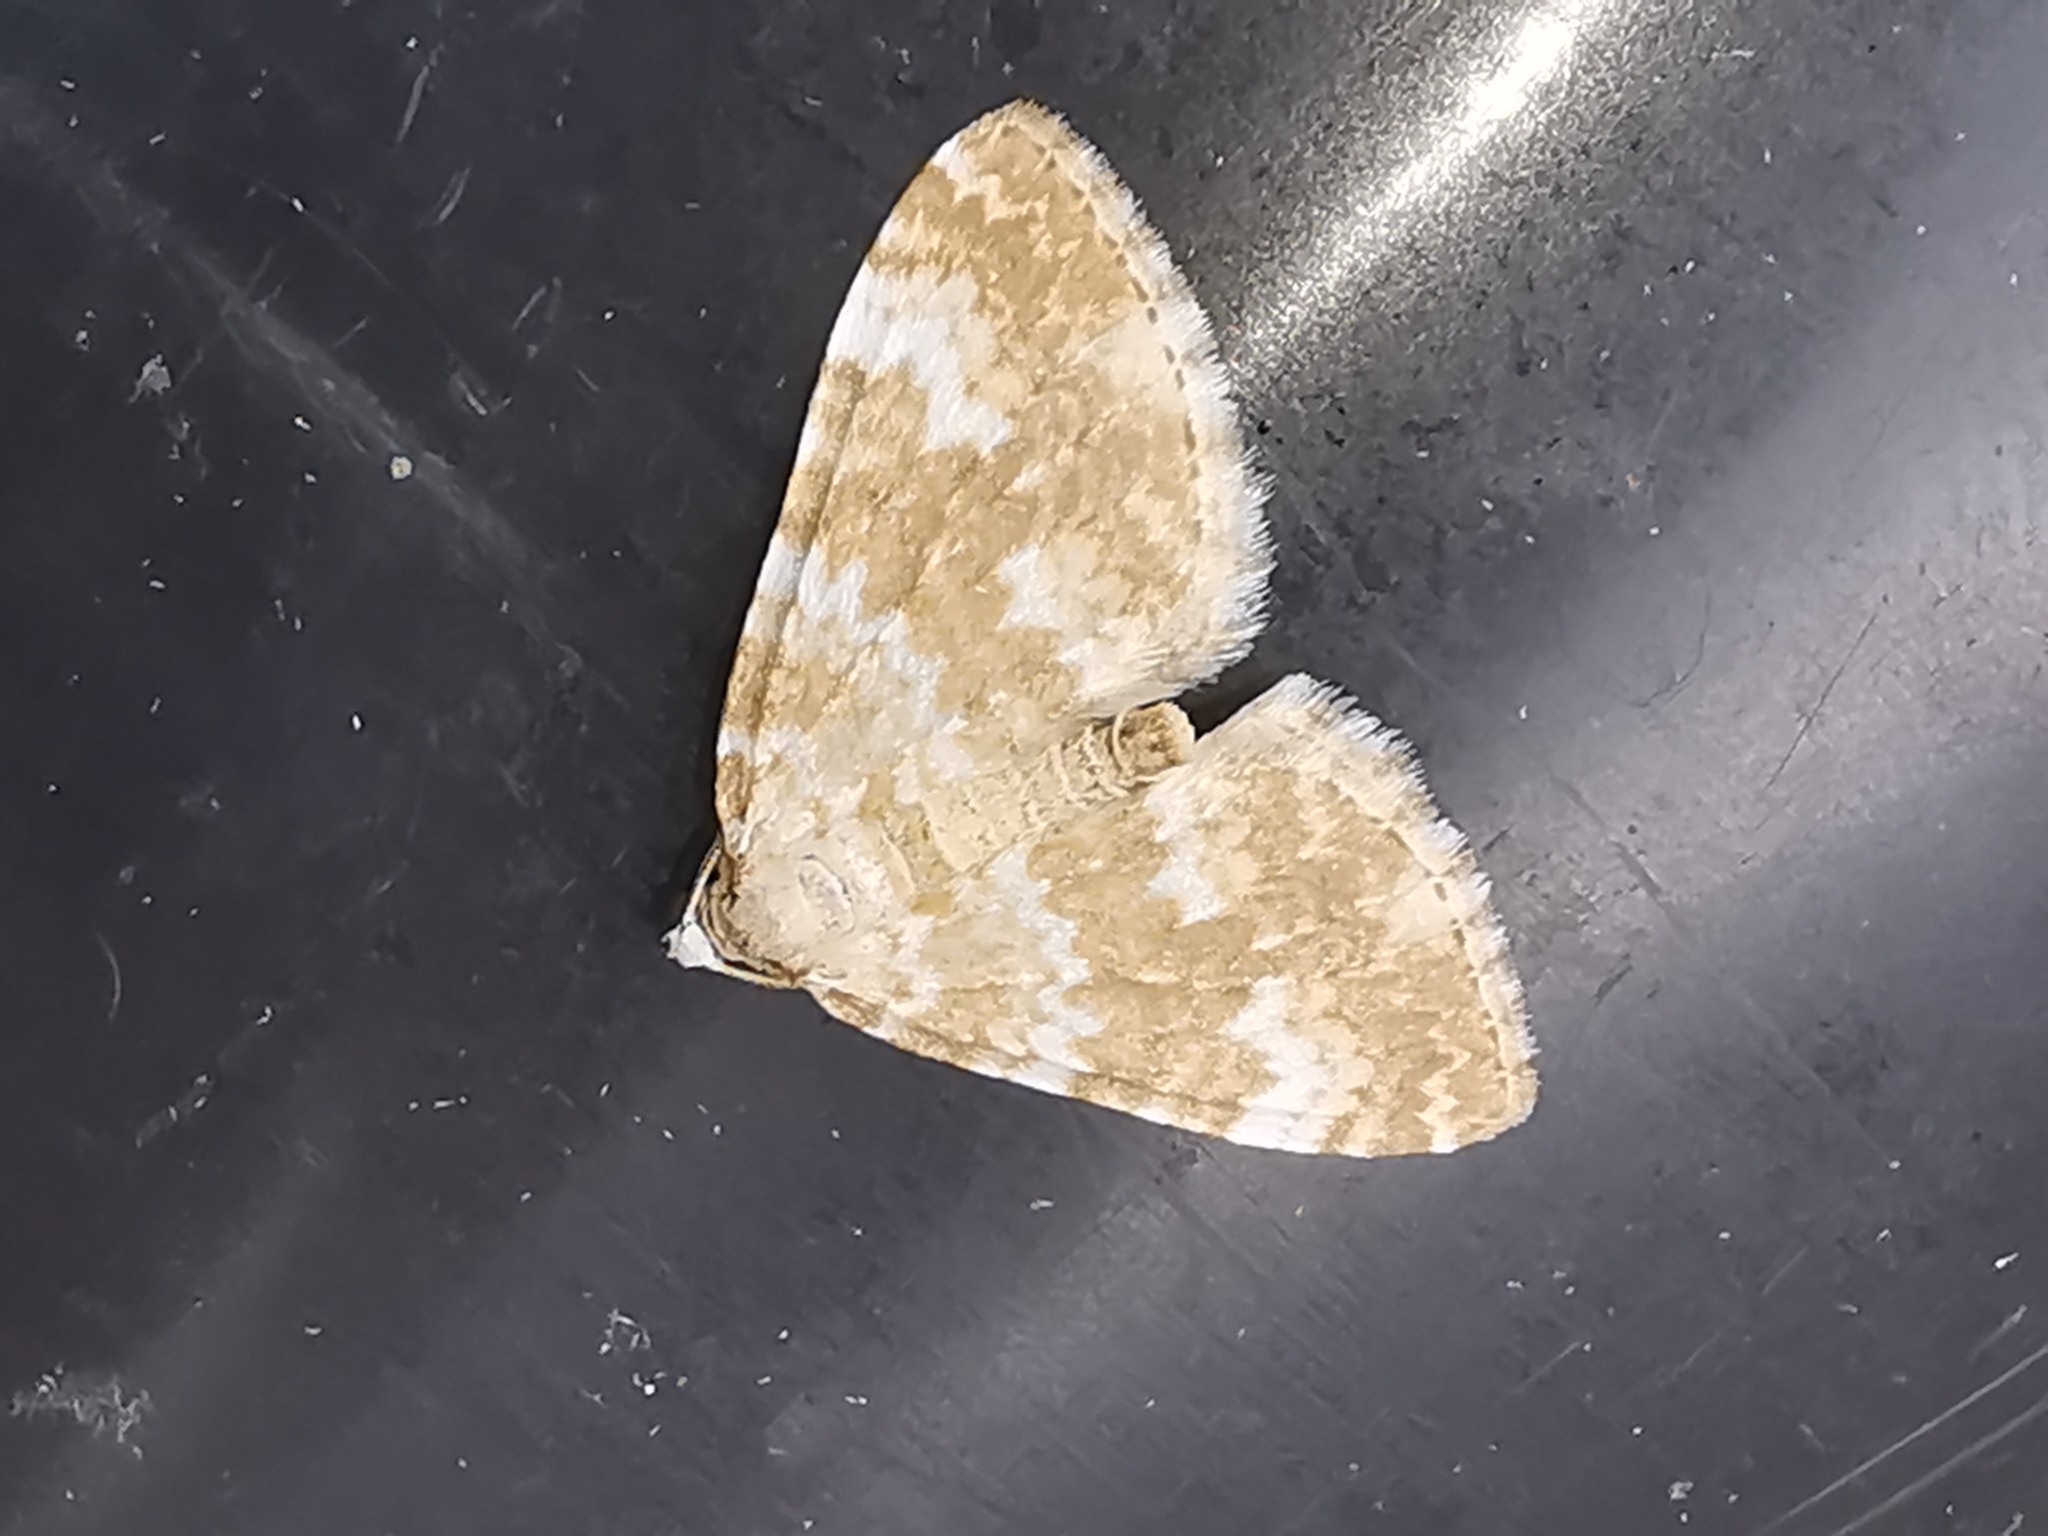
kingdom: Animalia
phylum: Arthropoda
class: Insecta
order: Lepidoptera
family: Geometridae
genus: Perizoma
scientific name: Perizoma flavofasciata
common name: Sandy carpet
